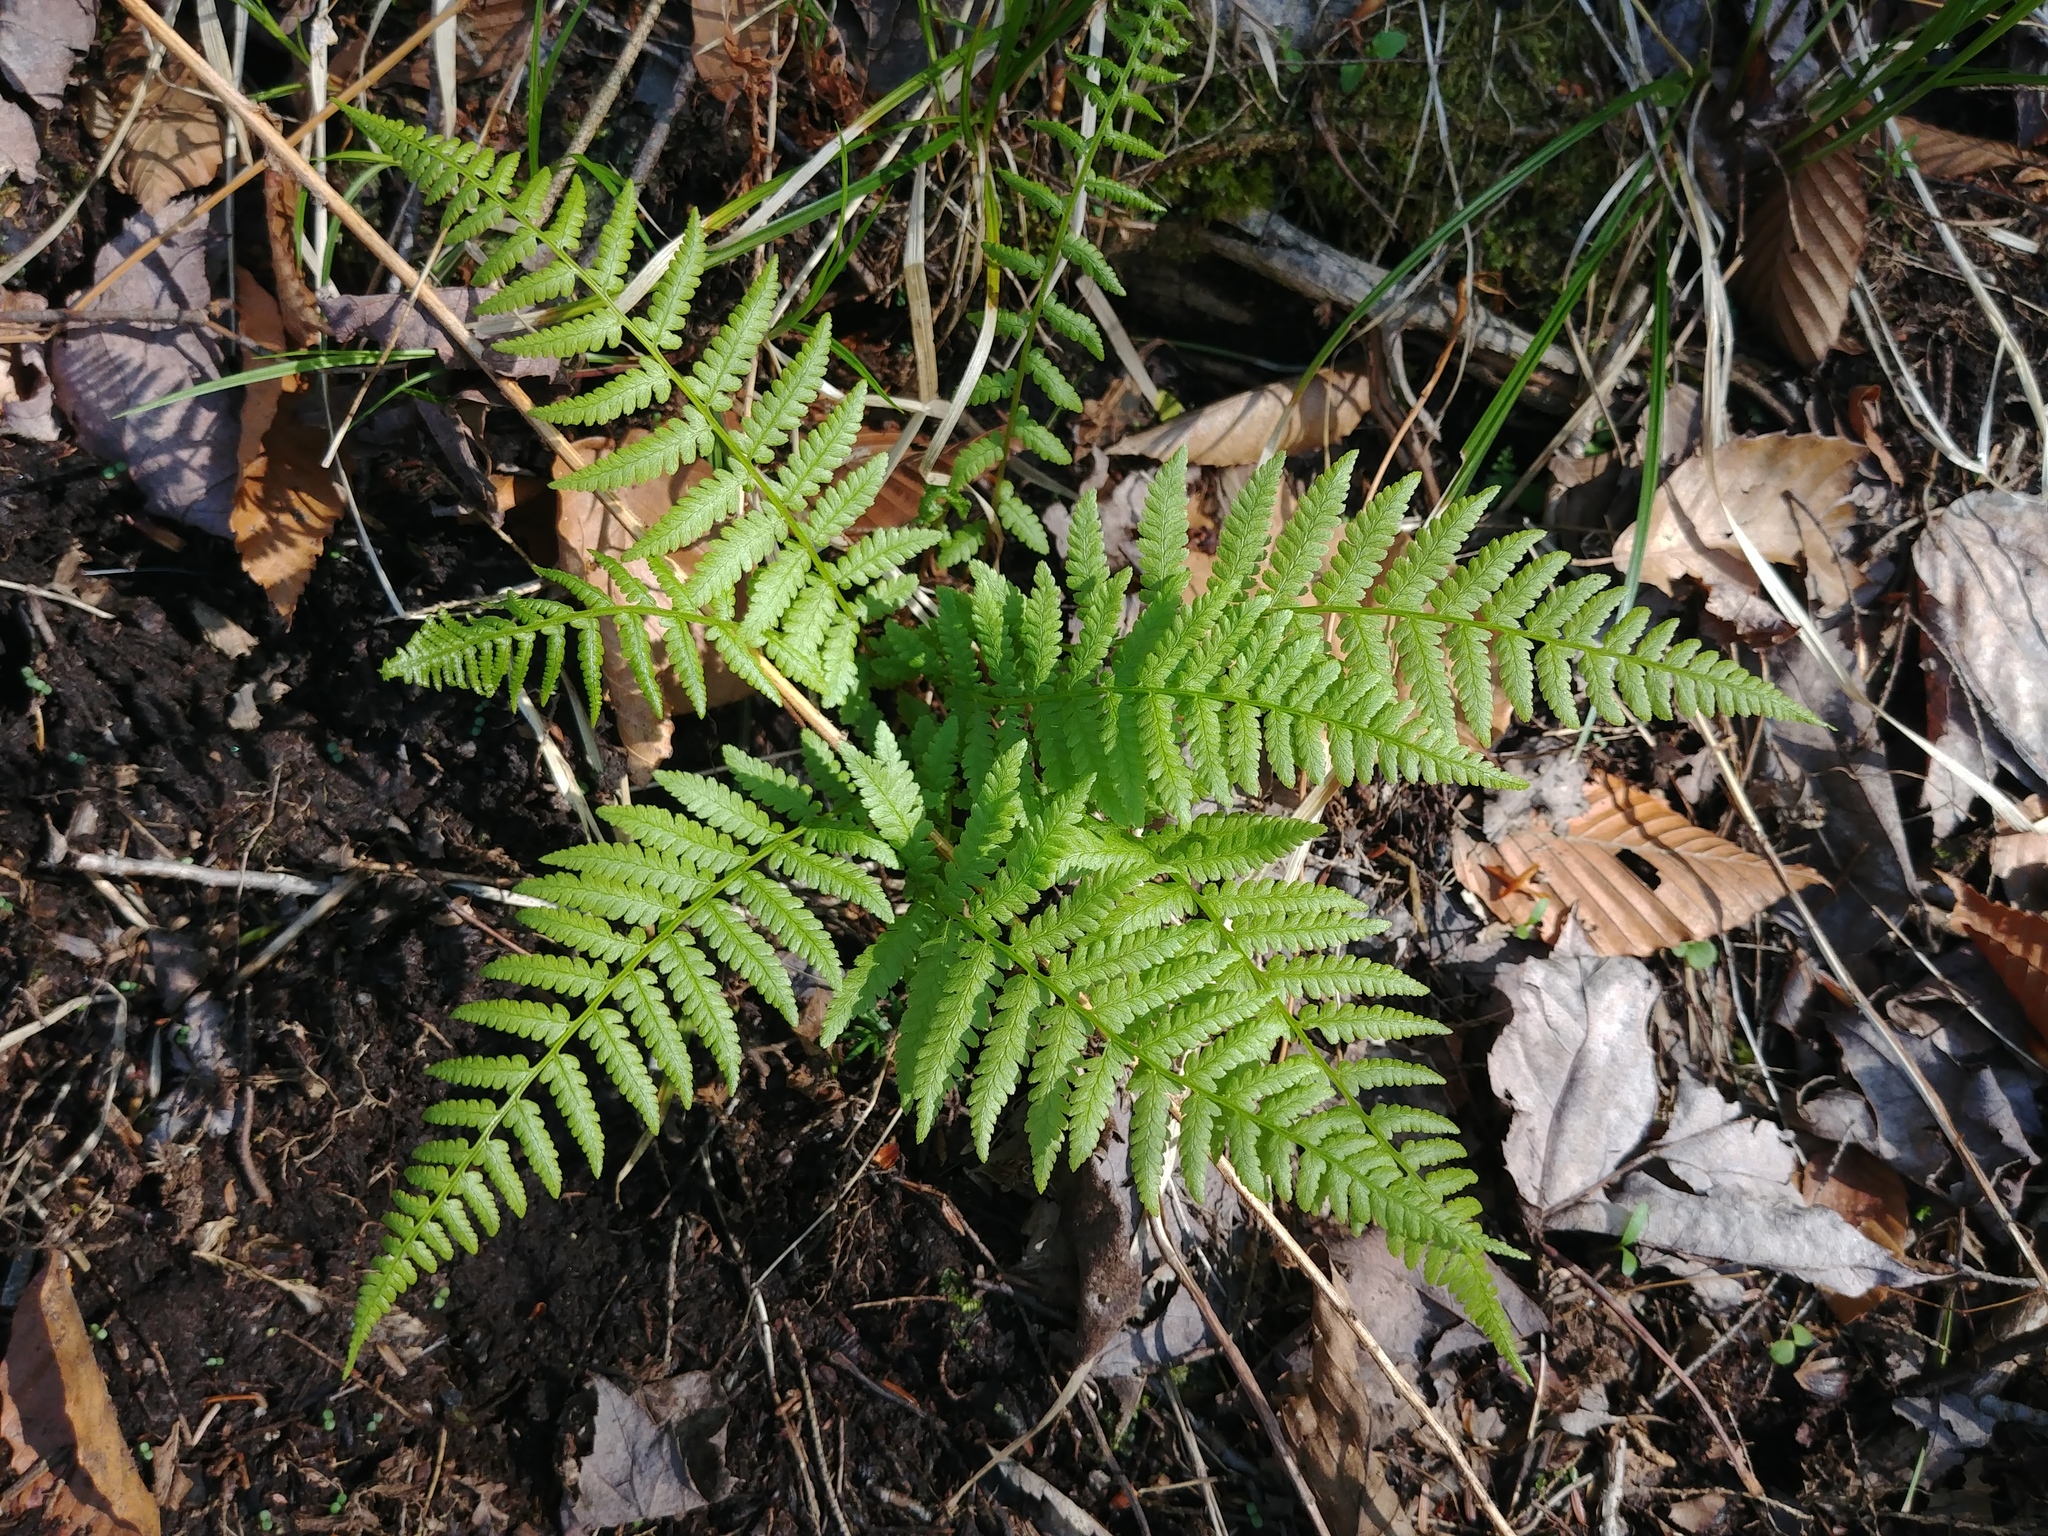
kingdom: Plantae
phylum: Tracheophyta
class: Polypodiopsida
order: Polypodiales
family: Athyriaceae
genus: Athyrium
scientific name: Athyrium angustum
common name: Northern lady fern
